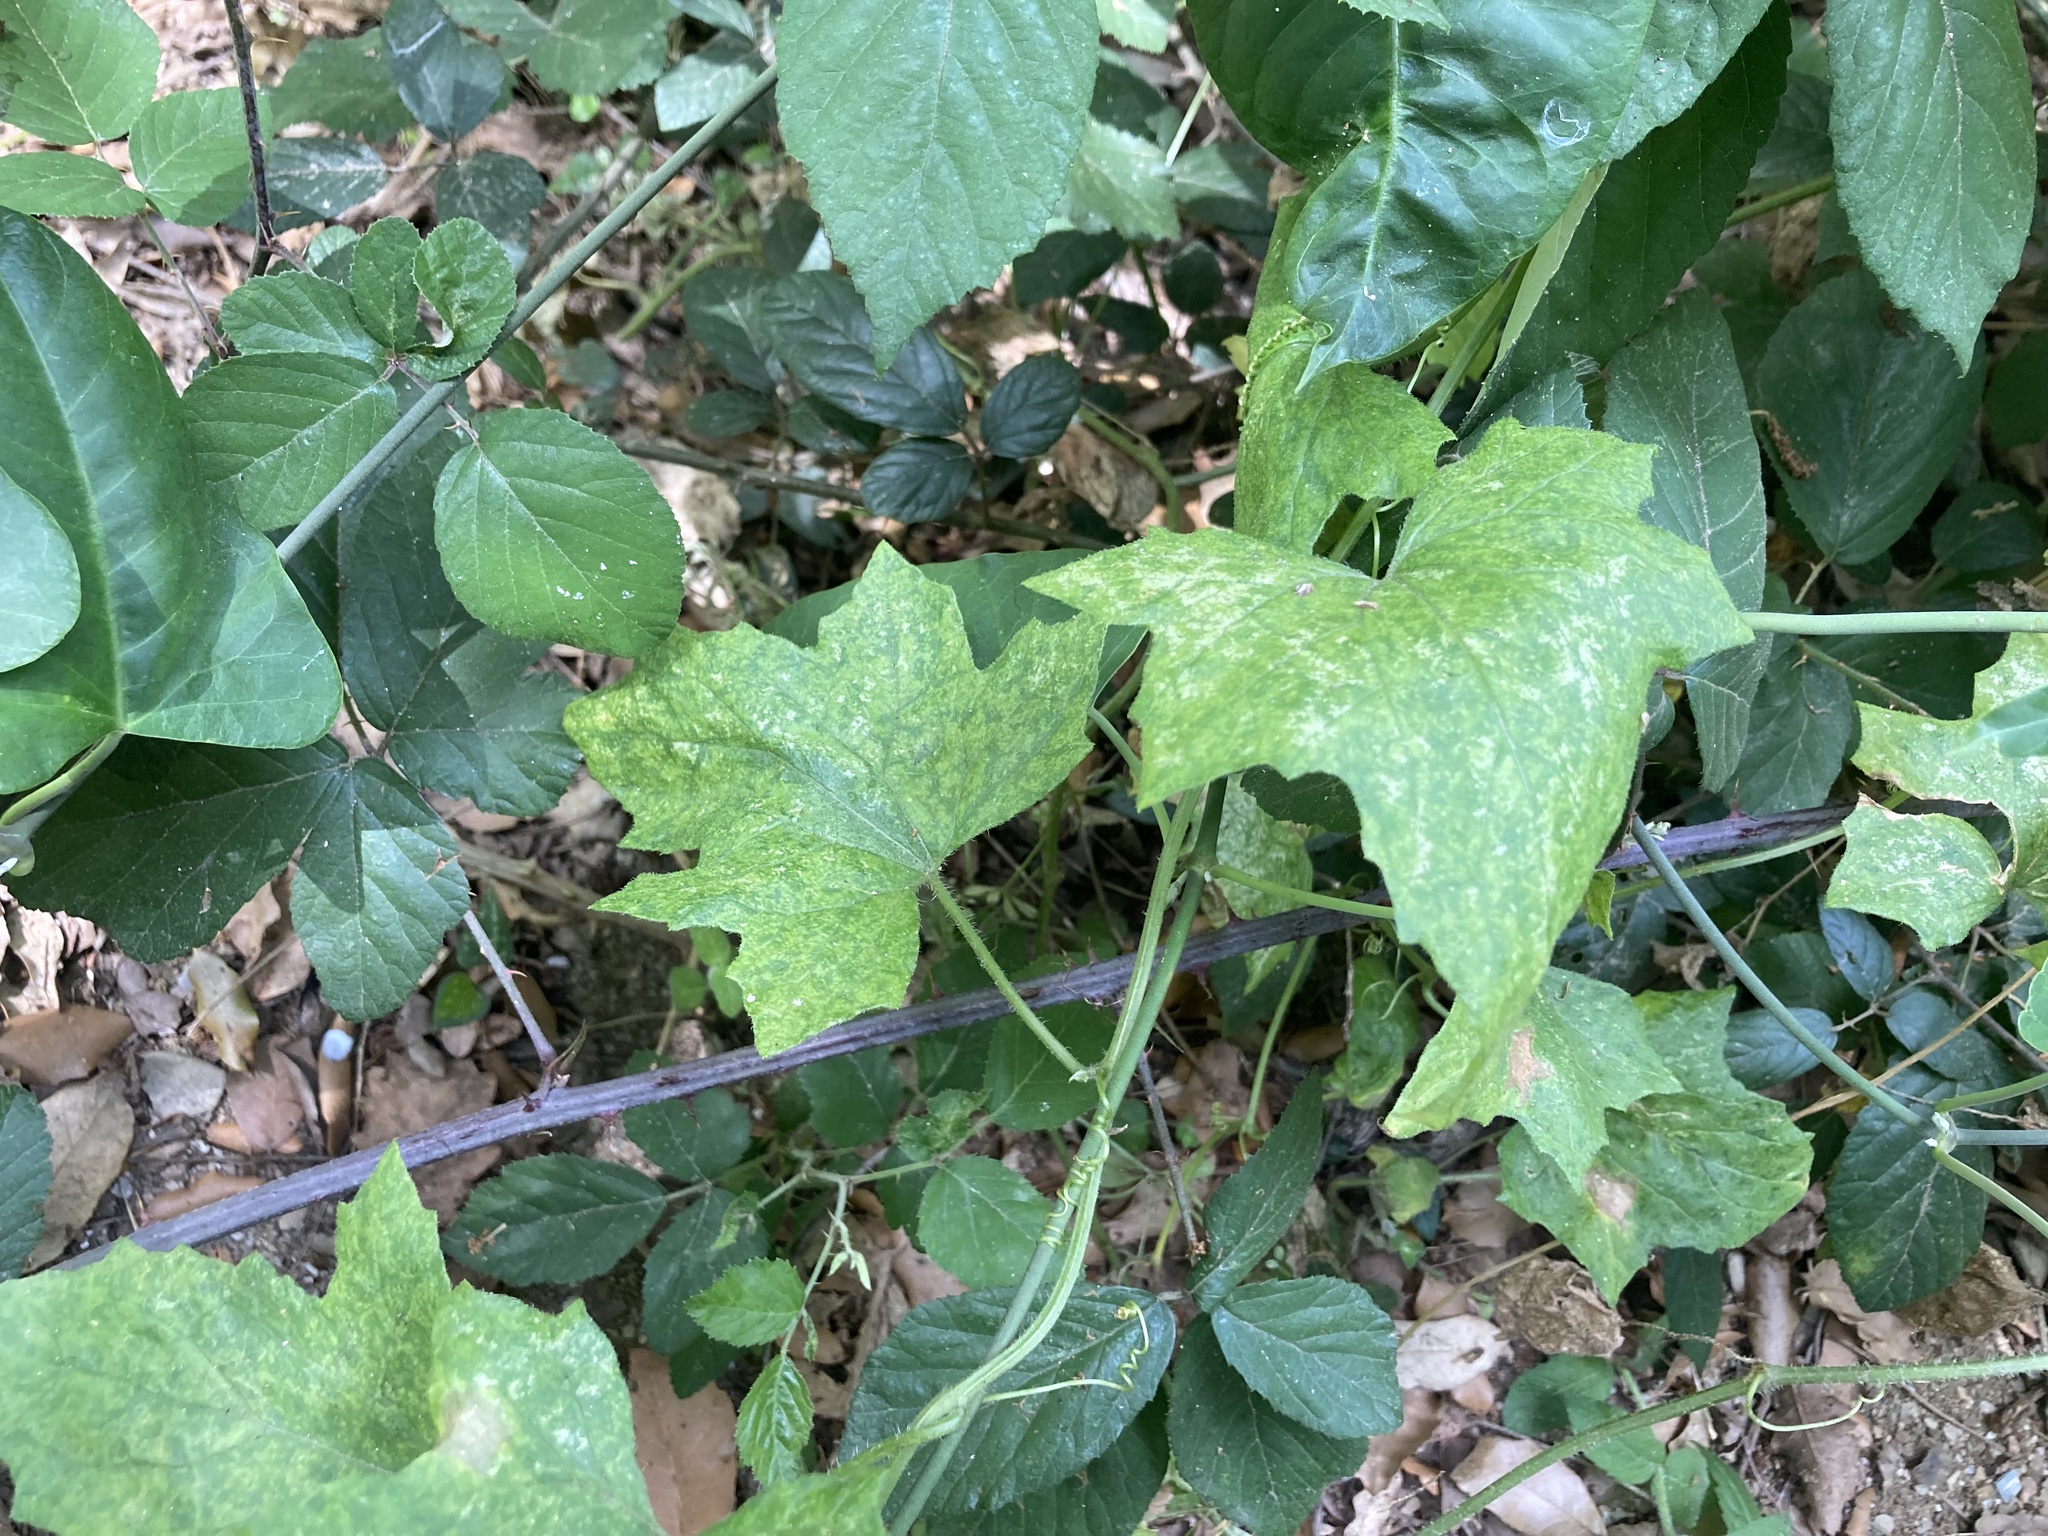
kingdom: Plantae
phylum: Tracheophyta
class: Magnoliopsida
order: Cucurbitales
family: Cucurbitaceae
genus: Bryonia
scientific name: Bryonia cretica
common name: Cretan bryony
